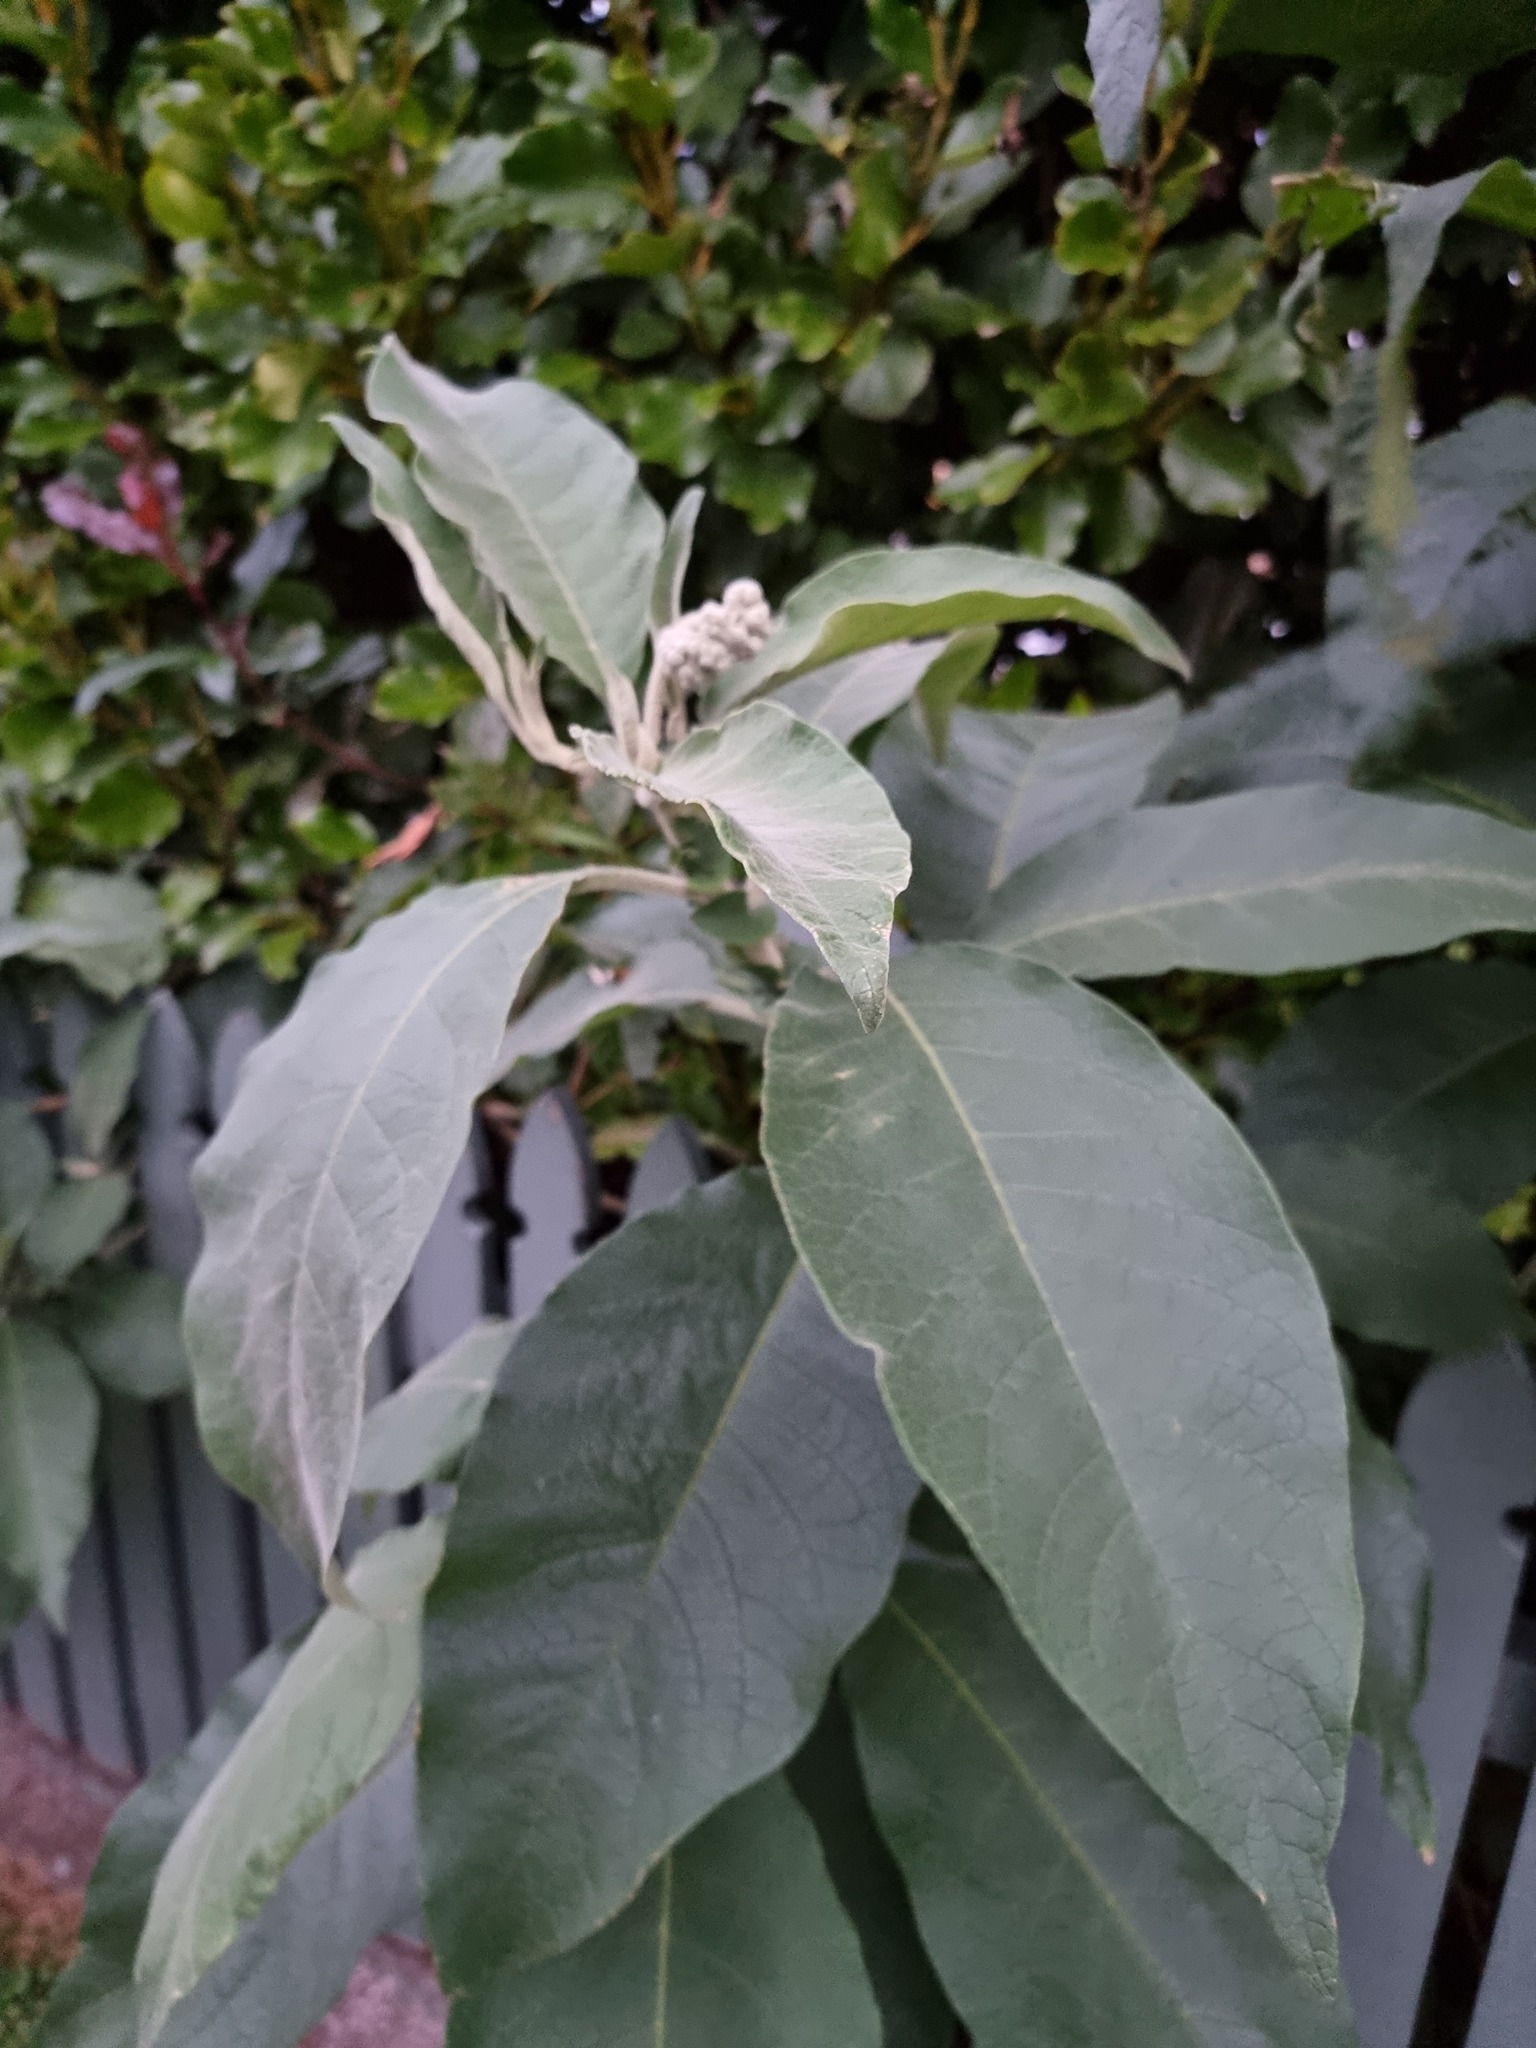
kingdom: Plantae
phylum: Tracheophyta
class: Magnoliopsida
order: Solanales
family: Solanaceae
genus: Solanum
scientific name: Solanum mauritianum
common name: Earleaf nightshade
